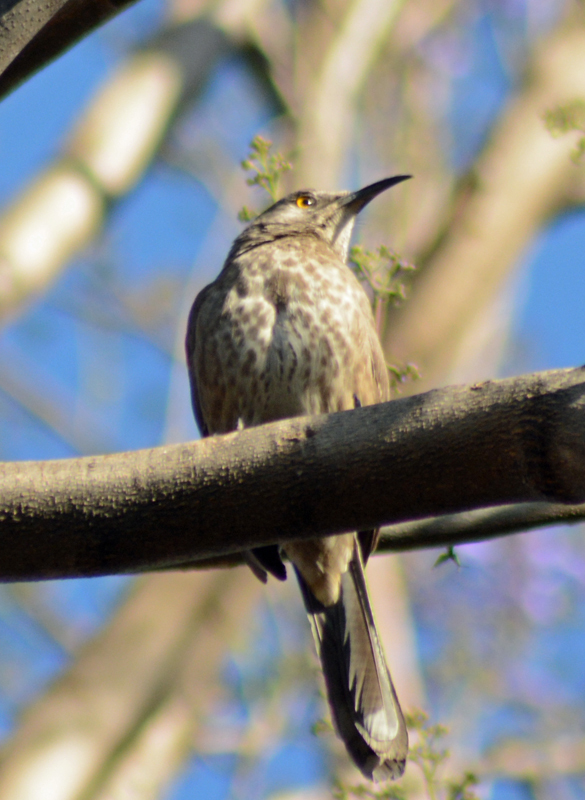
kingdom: Animalia
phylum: Chordata
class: Aves
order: Passeriformes
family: Mimidae
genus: Toxostoma
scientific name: Toxostoma curvirostre
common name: Curve-billed thrasher
